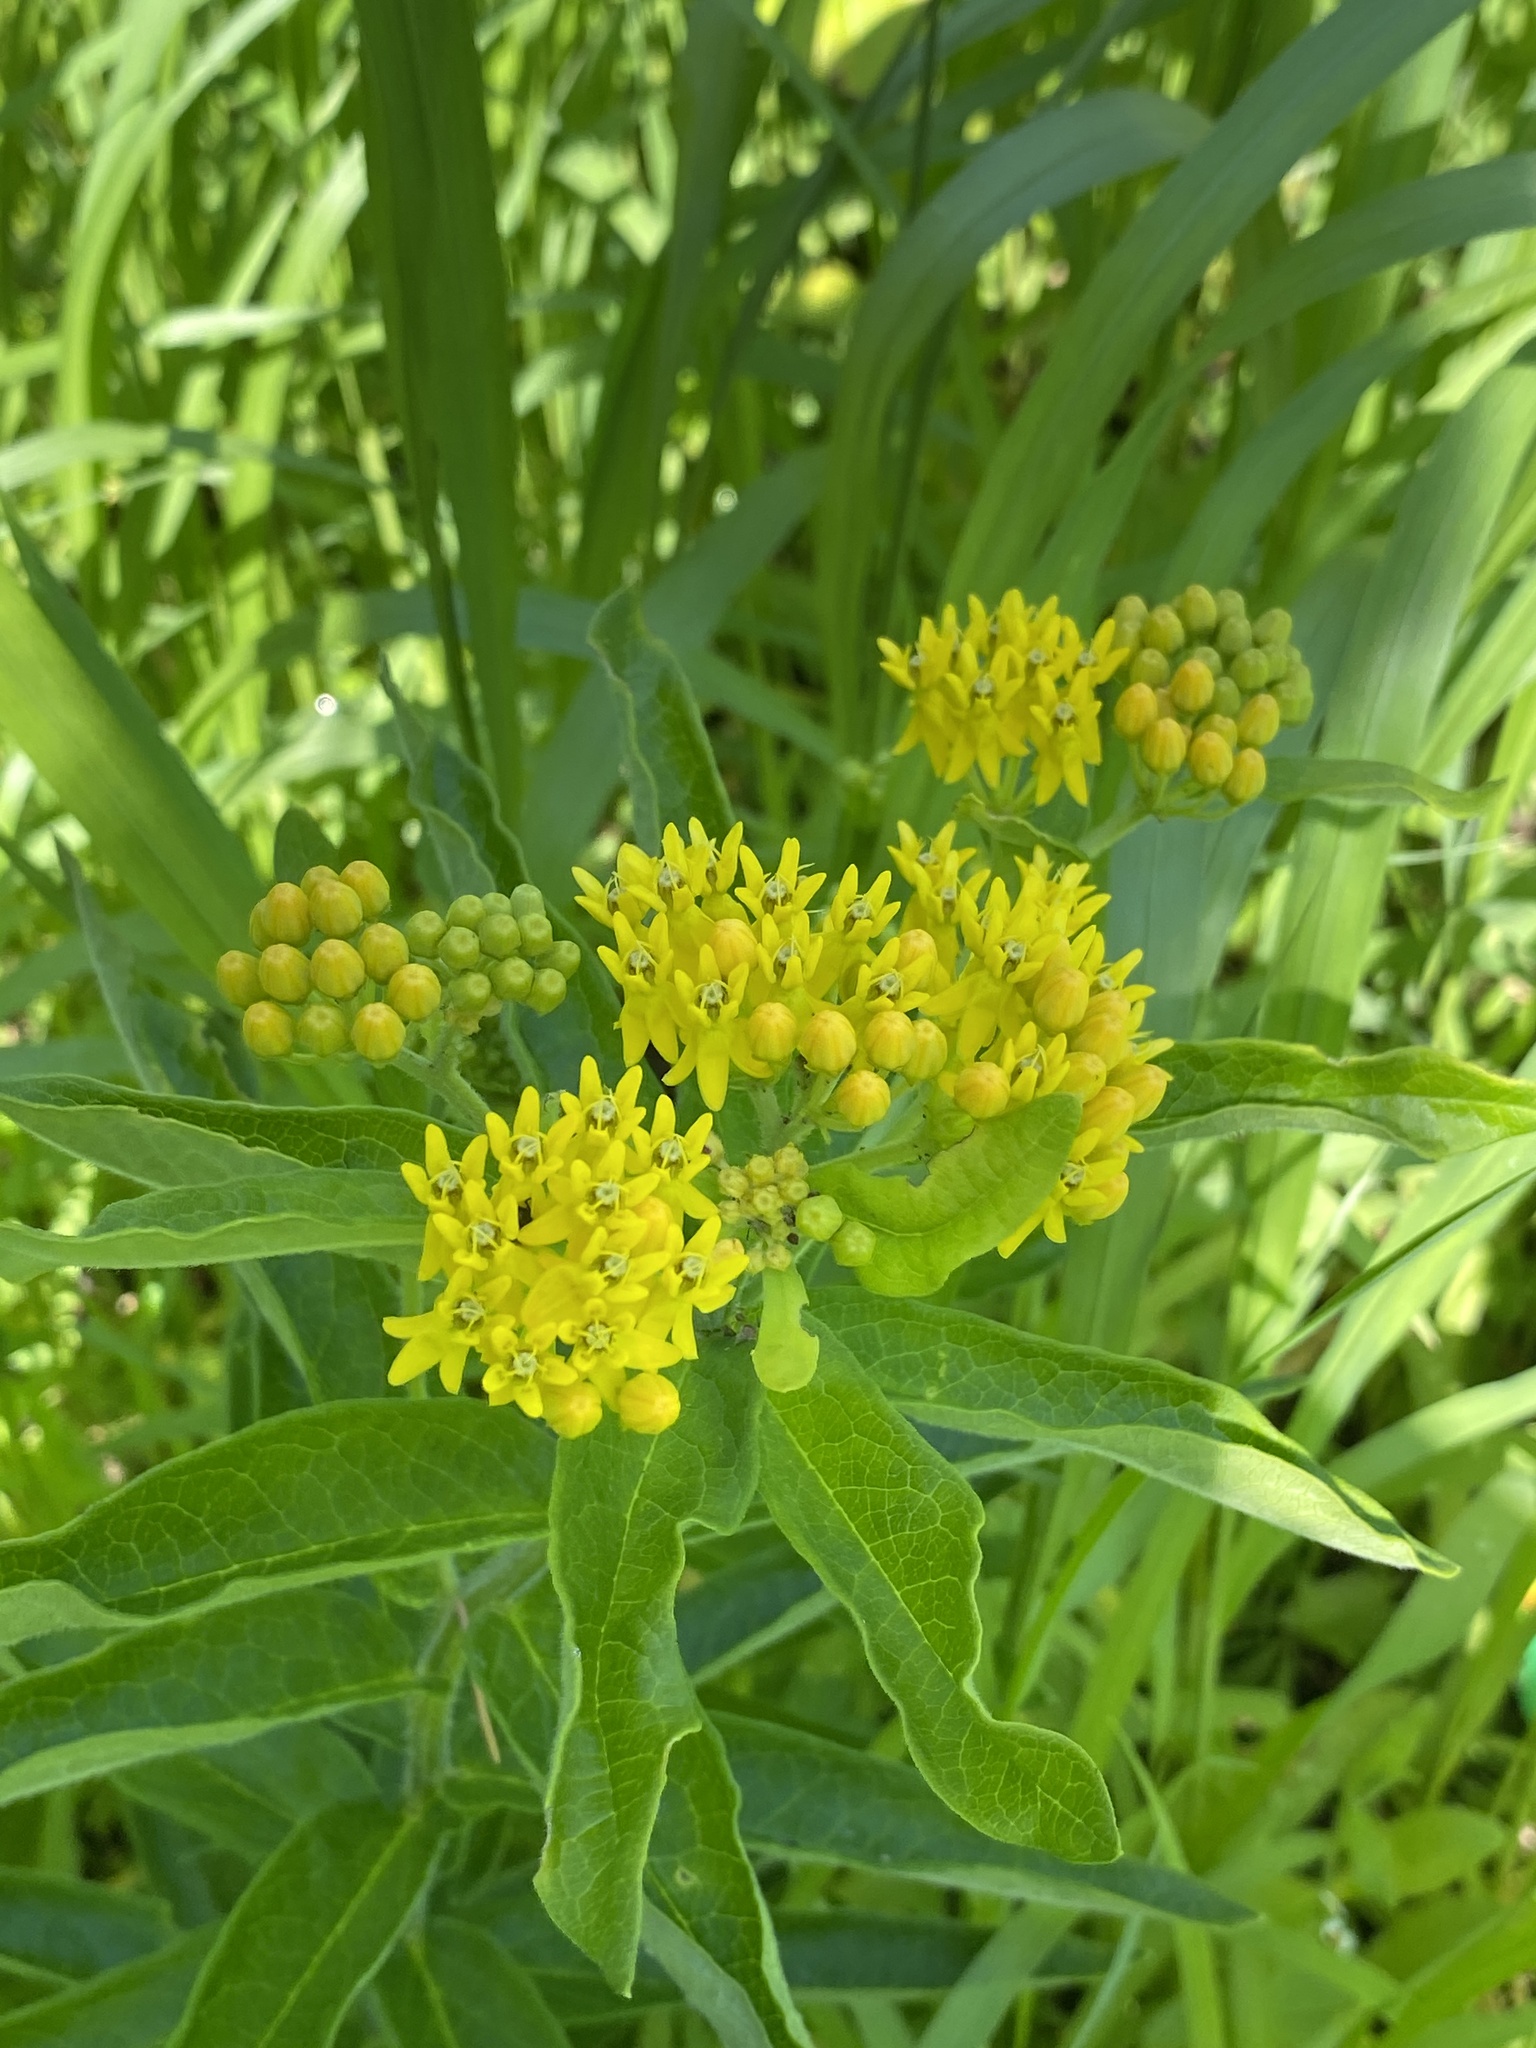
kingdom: Plantae
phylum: Tracheophyta
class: Magnoliopsida
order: Gentianales
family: Apocynaceae
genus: Asclepias
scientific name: Asclepias tuberosa
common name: Butterfly milkweed
